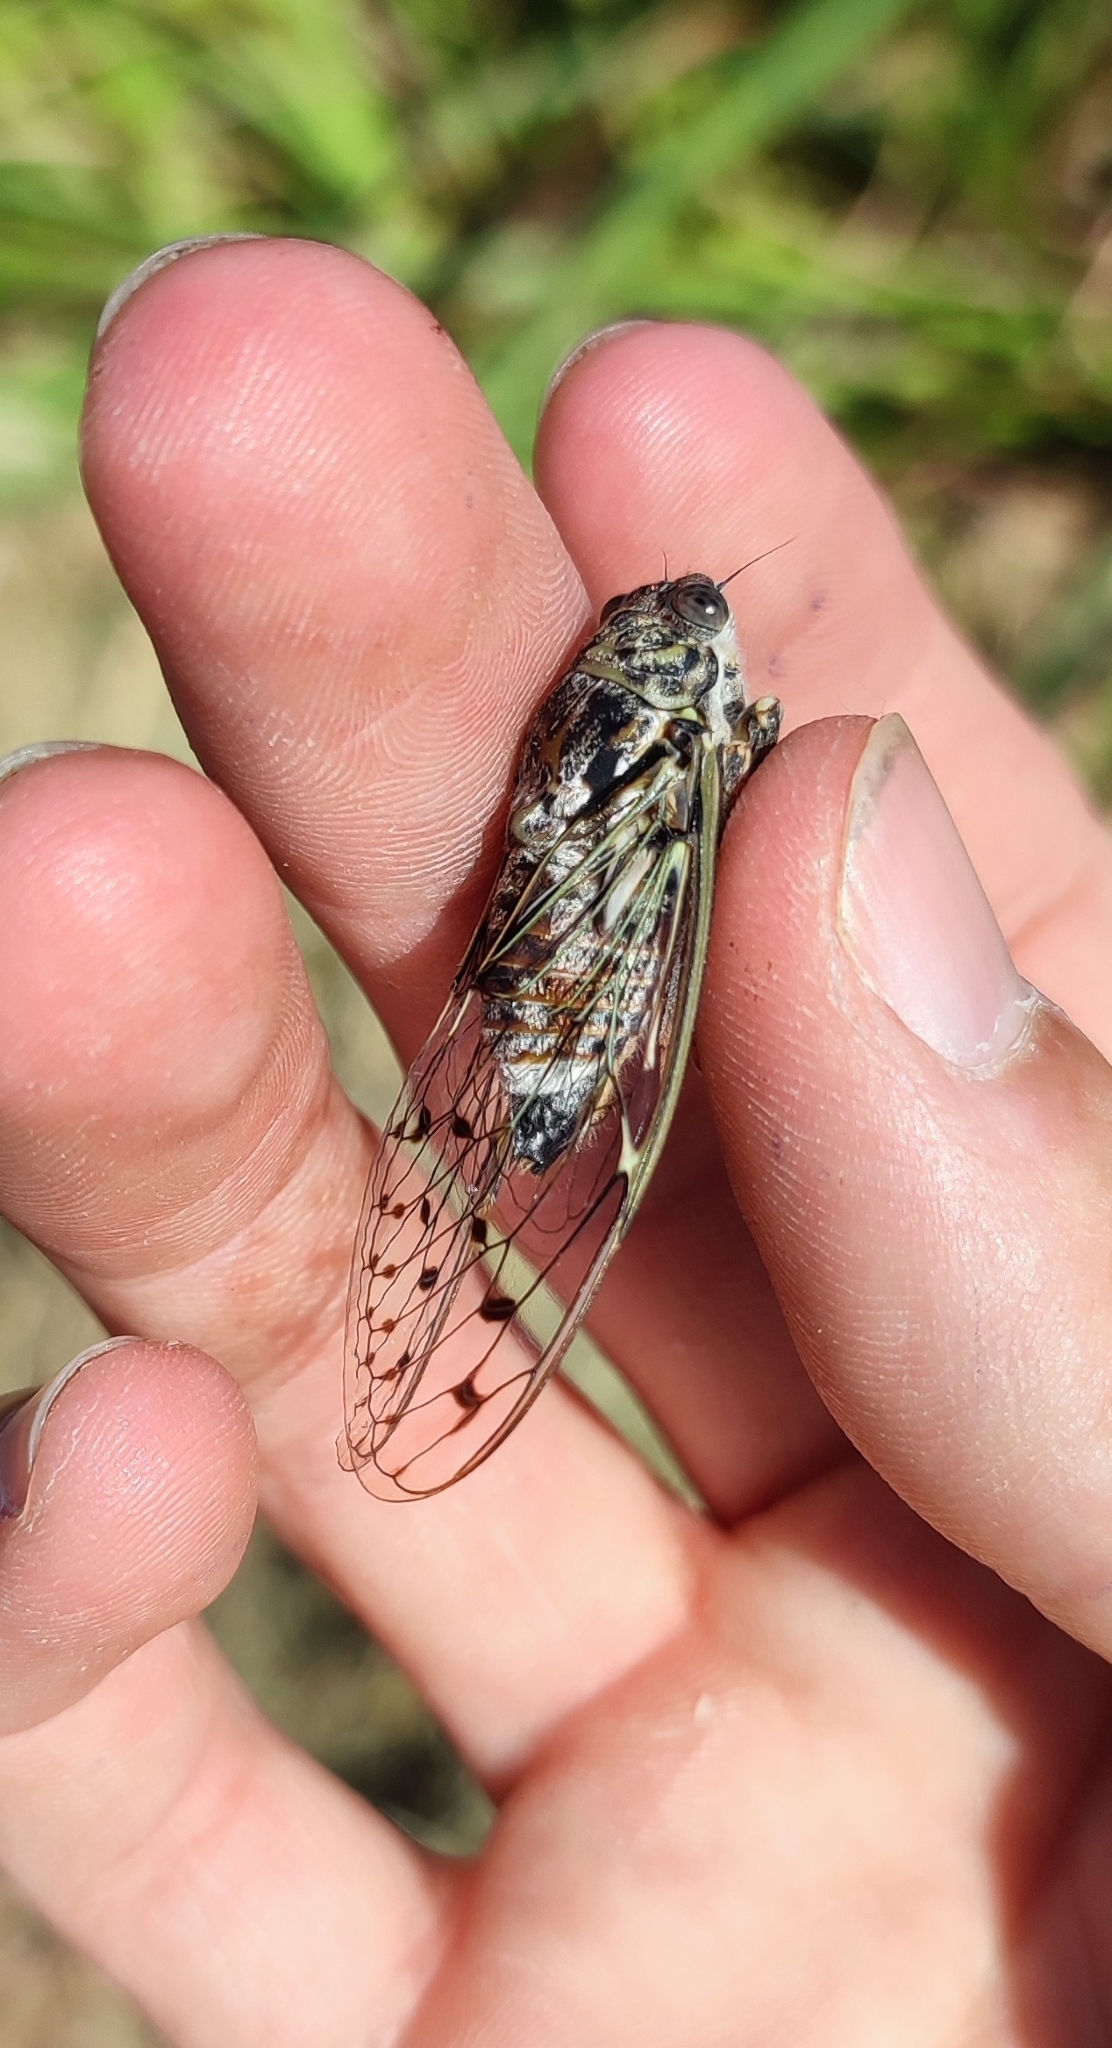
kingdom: Animalia
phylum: Arthropoda
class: Insecta
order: Hemiptera
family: Cicadidae
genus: Cicada
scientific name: Cicada orni
